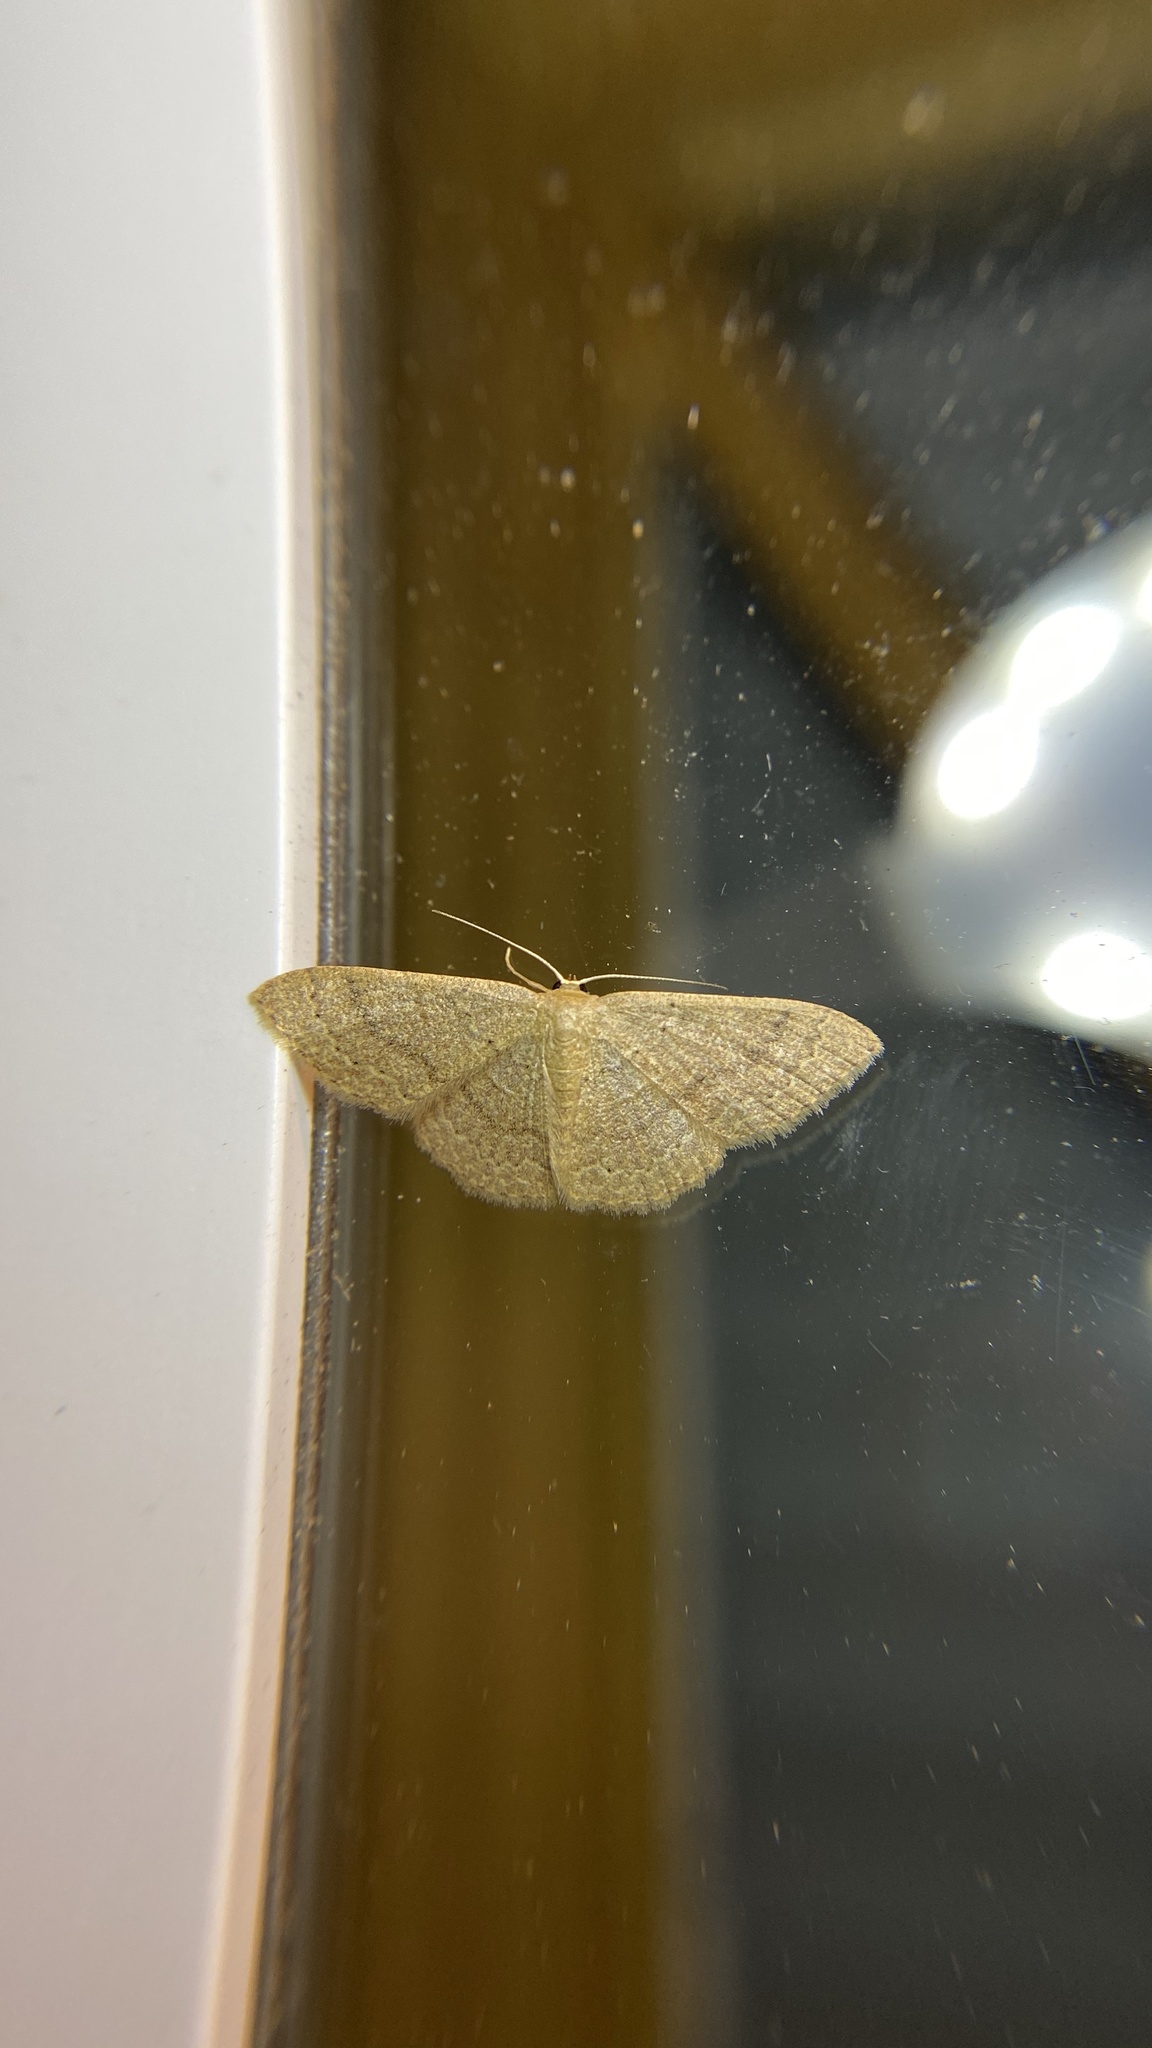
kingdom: Animalia
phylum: Arthropoda
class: Insecta
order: Lepidoptera
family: Geometridae
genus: Pleuroprucha
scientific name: Pleuroprucha insulsaria
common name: Common tan wave
